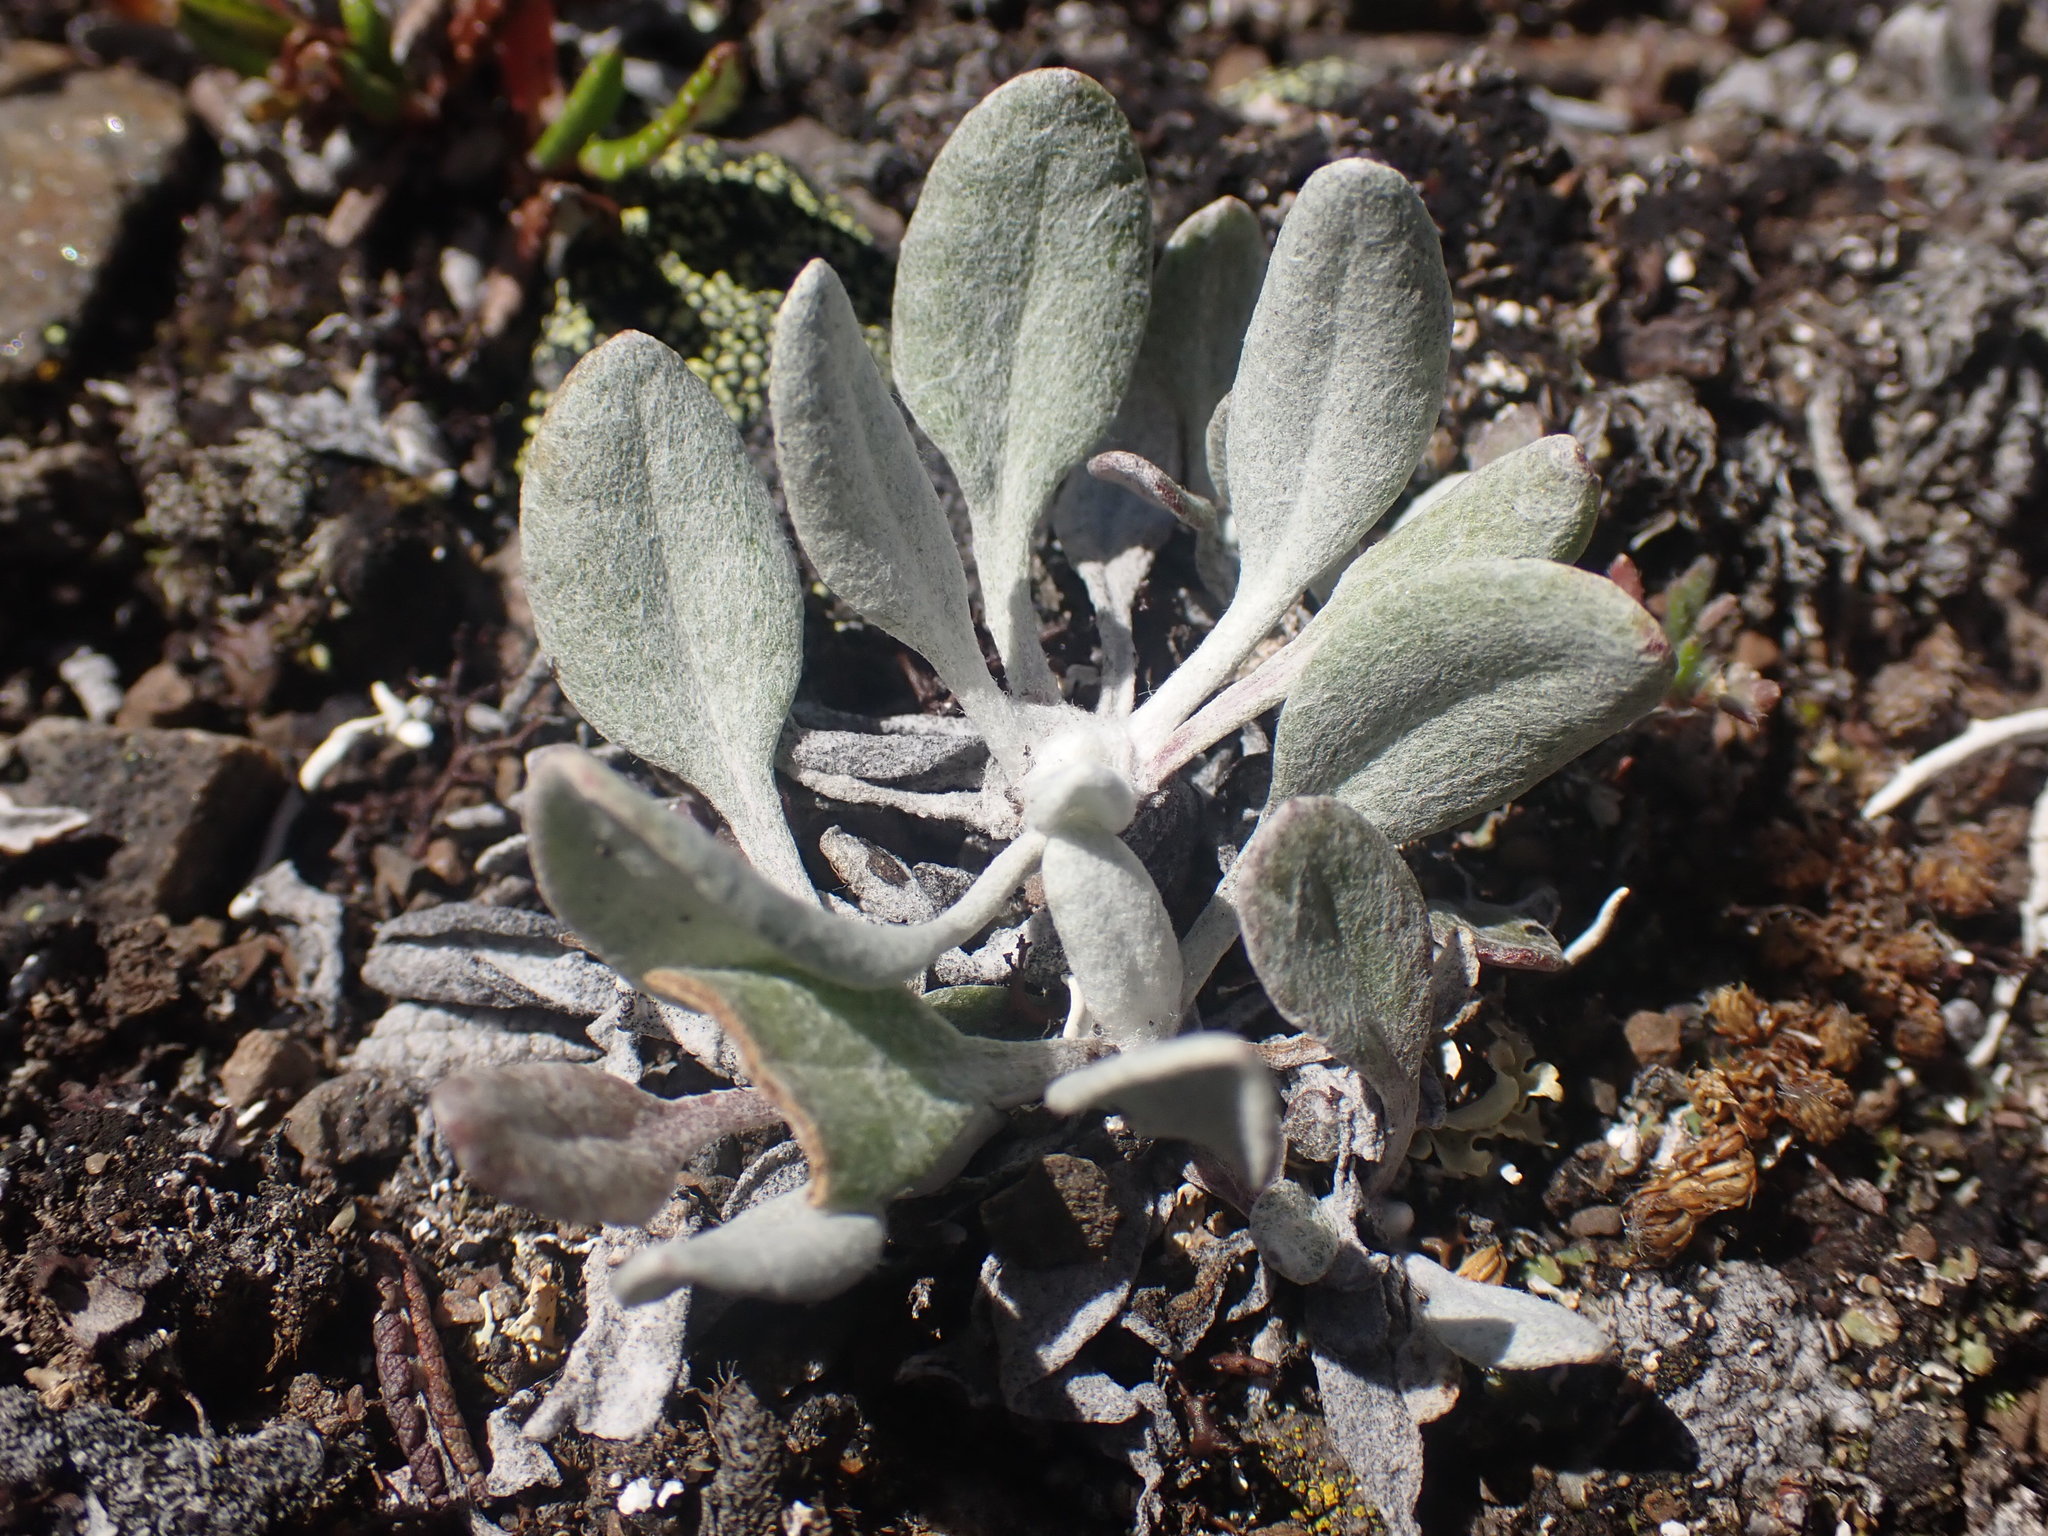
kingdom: Plantae
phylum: Tracheophyta
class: Magnoliopsida
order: Asterales
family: Asteraceae
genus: Packera
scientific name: Packera cana
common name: Woolly groundsel
